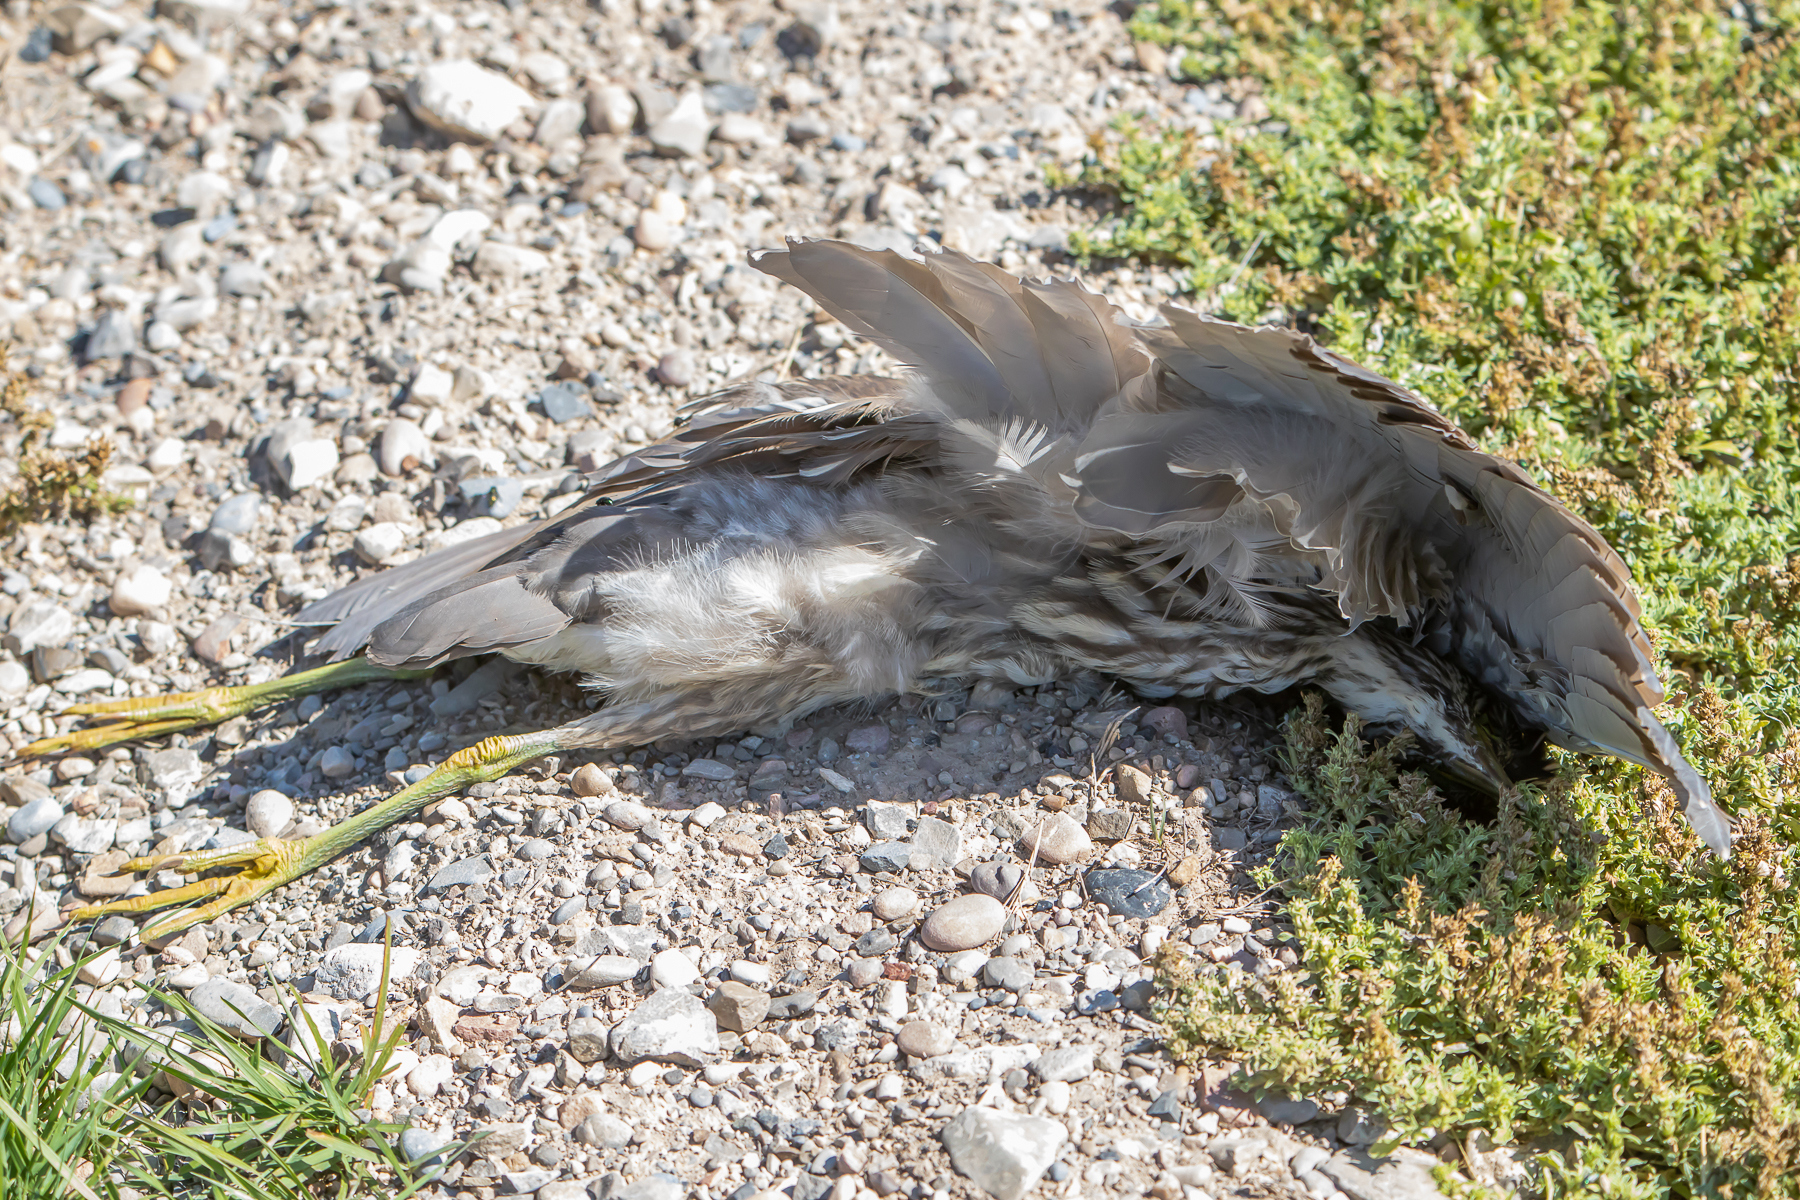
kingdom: Animalia
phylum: Chordata
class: Aves
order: Pelecaniformes
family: Ardeidae
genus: Nycticorax
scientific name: Nycticorax nycticorax
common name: Black-crowned night heron
